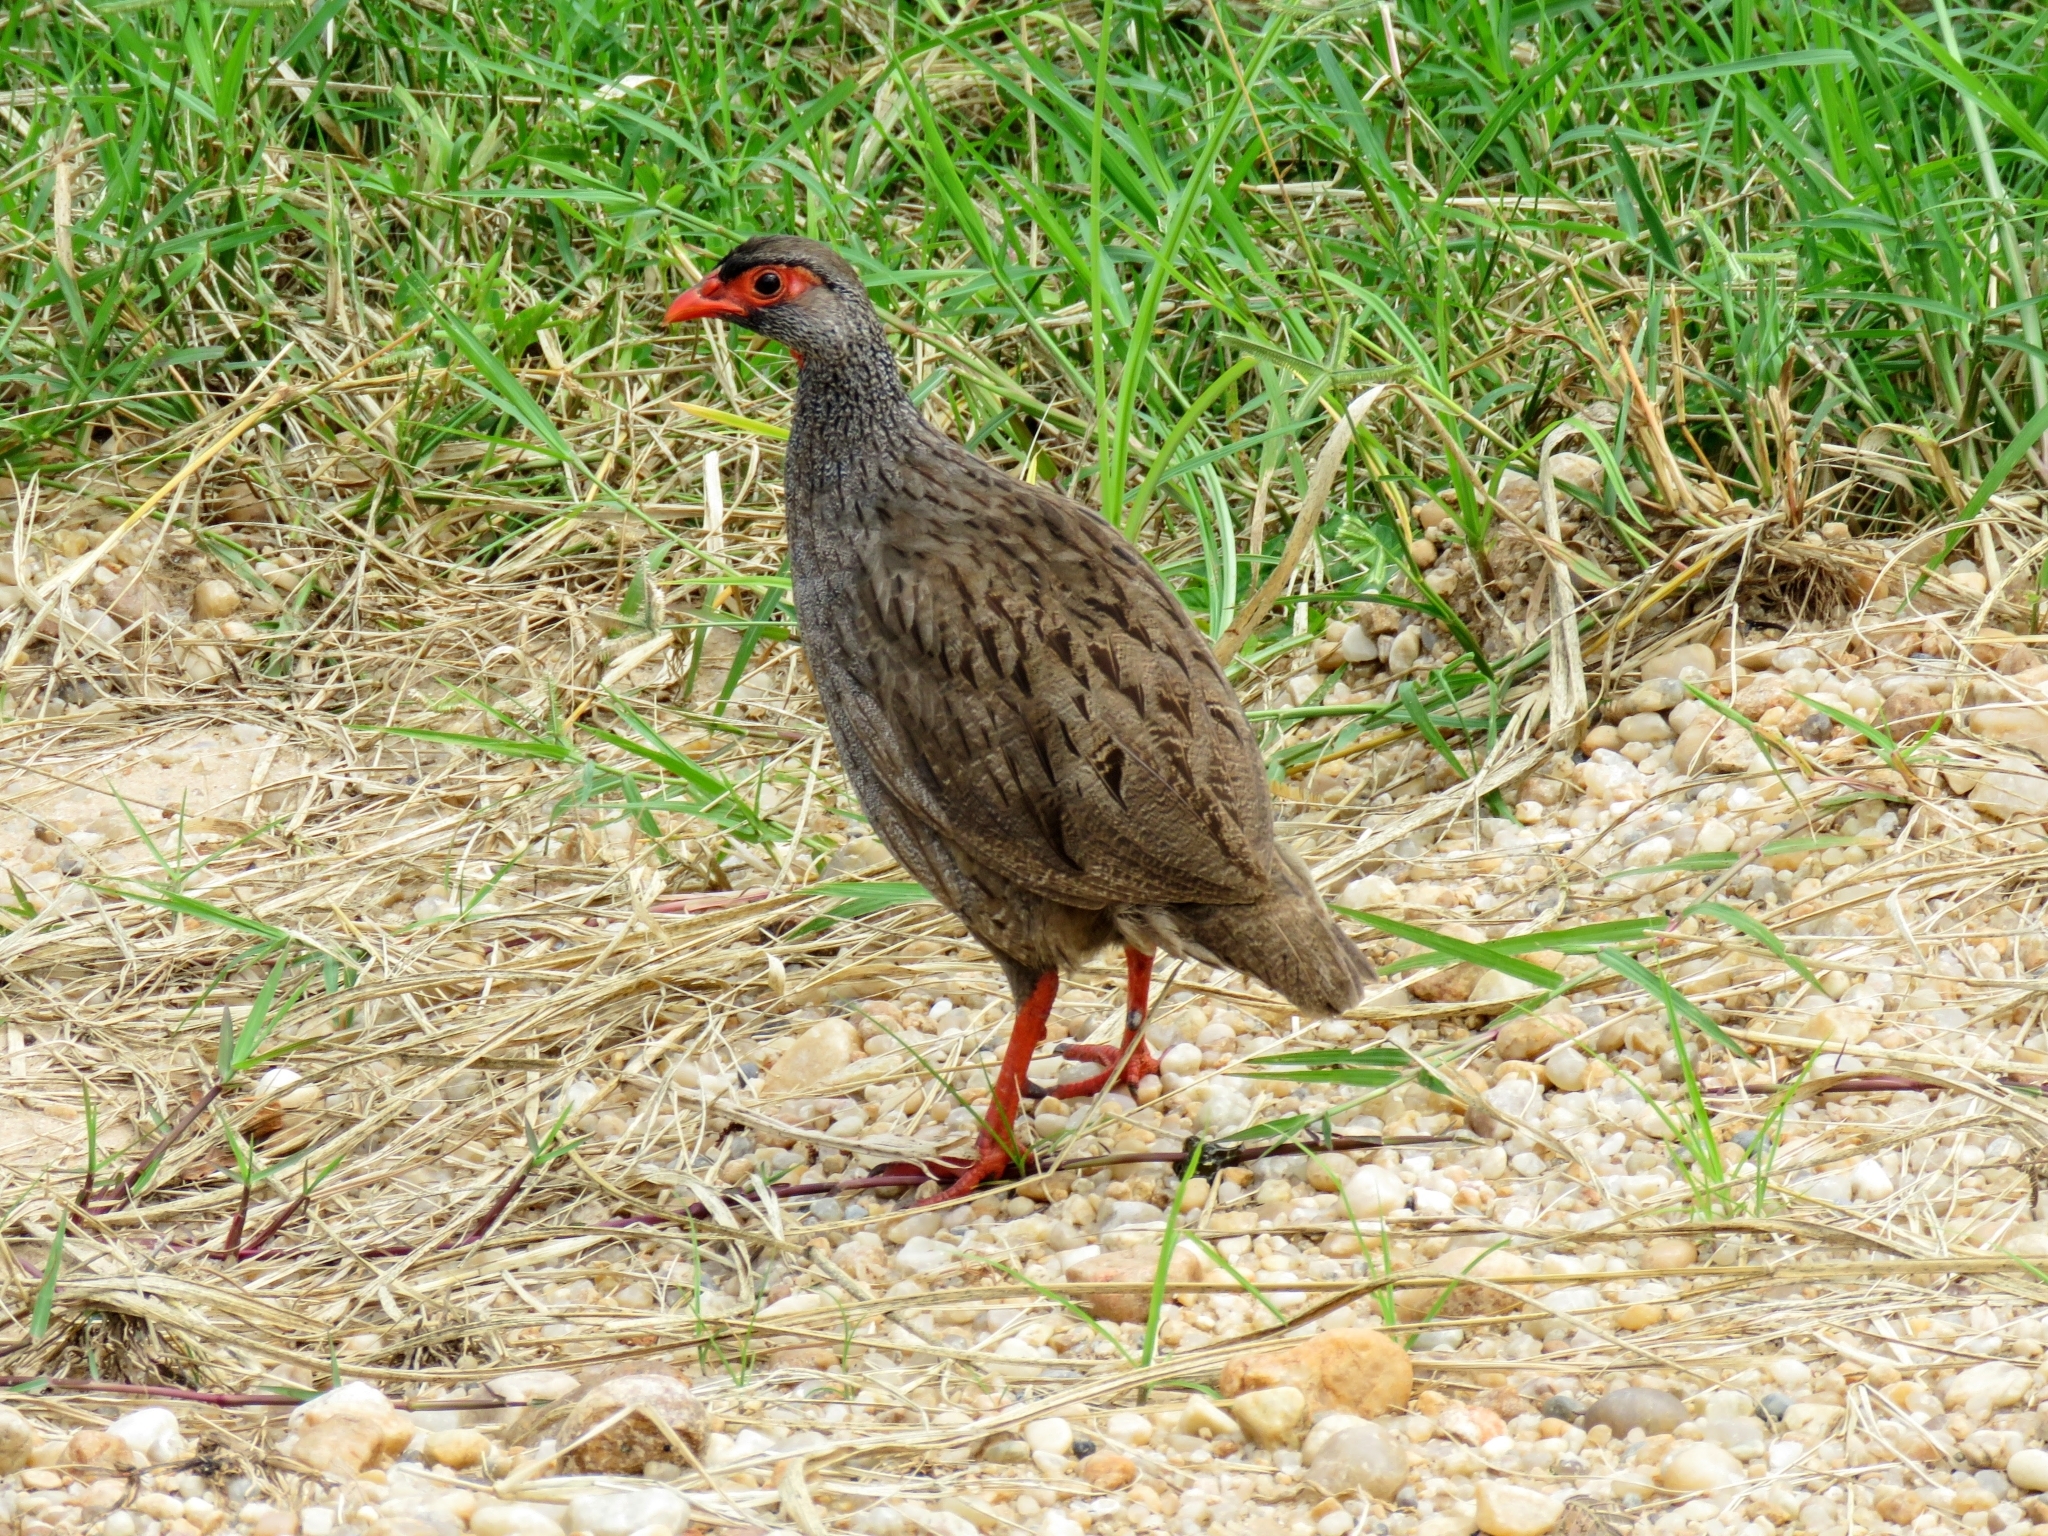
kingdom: Animalia
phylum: Chordata
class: Aves
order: Galliformes
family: Phasianidae
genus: Pternistis
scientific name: Pternistis afer
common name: Red-necked spurfowl
